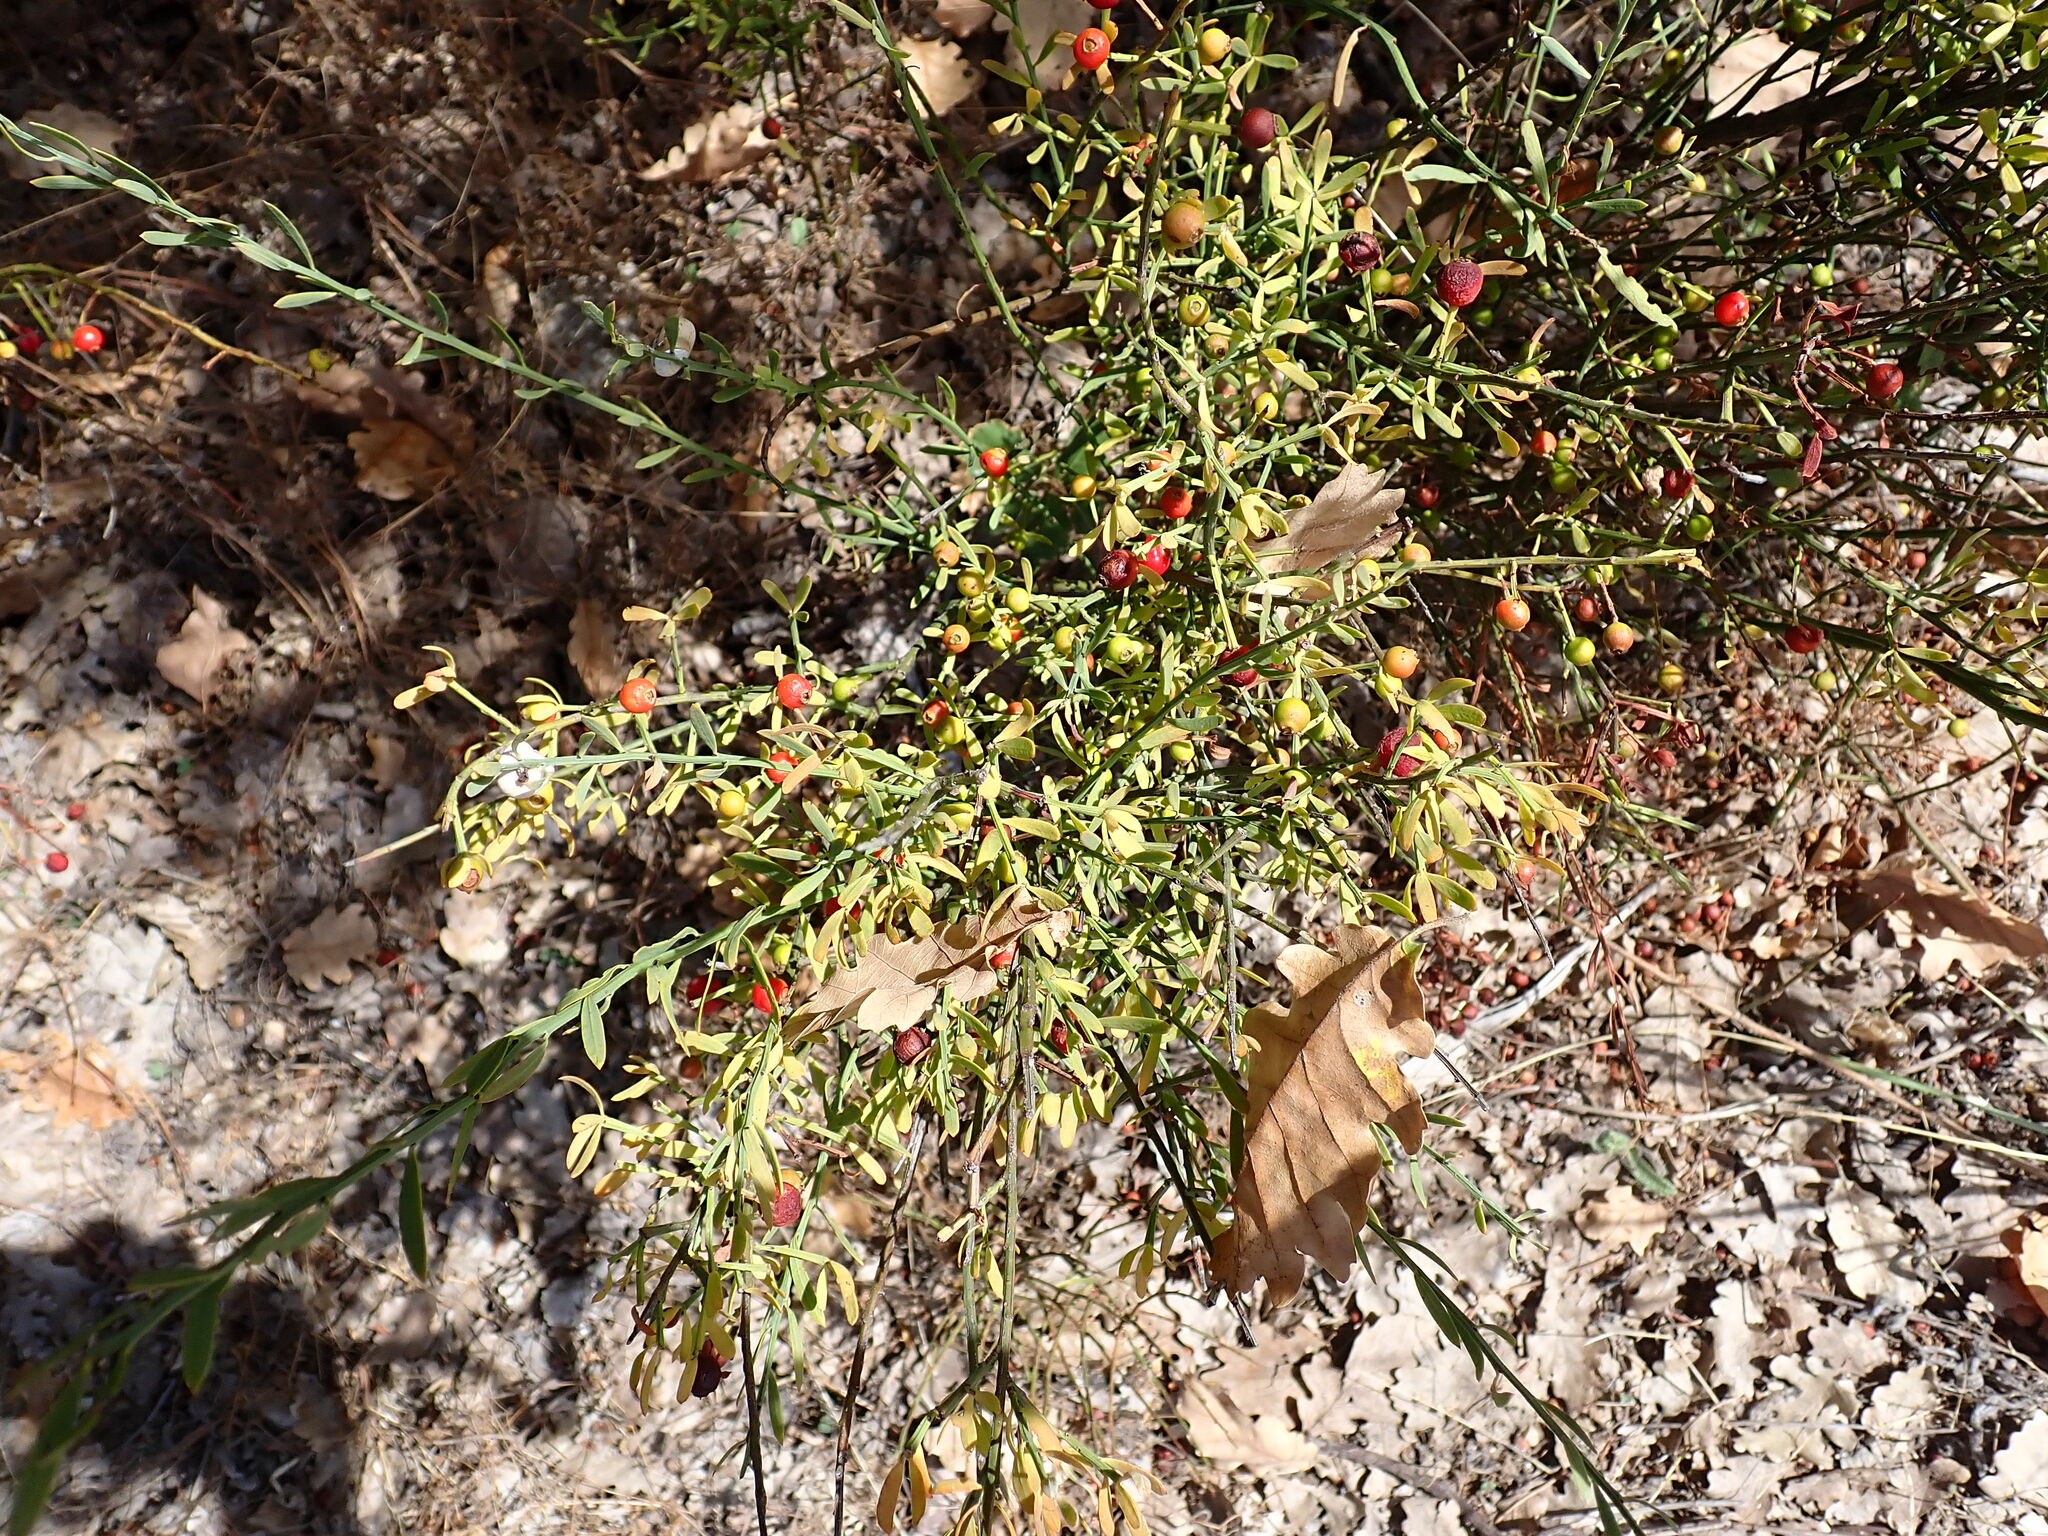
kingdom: Plantae
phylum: Tracheophyta
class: Magnoliopsida
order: Santalales
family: Santalaceae
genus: Osyris
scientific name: Osyris alba
